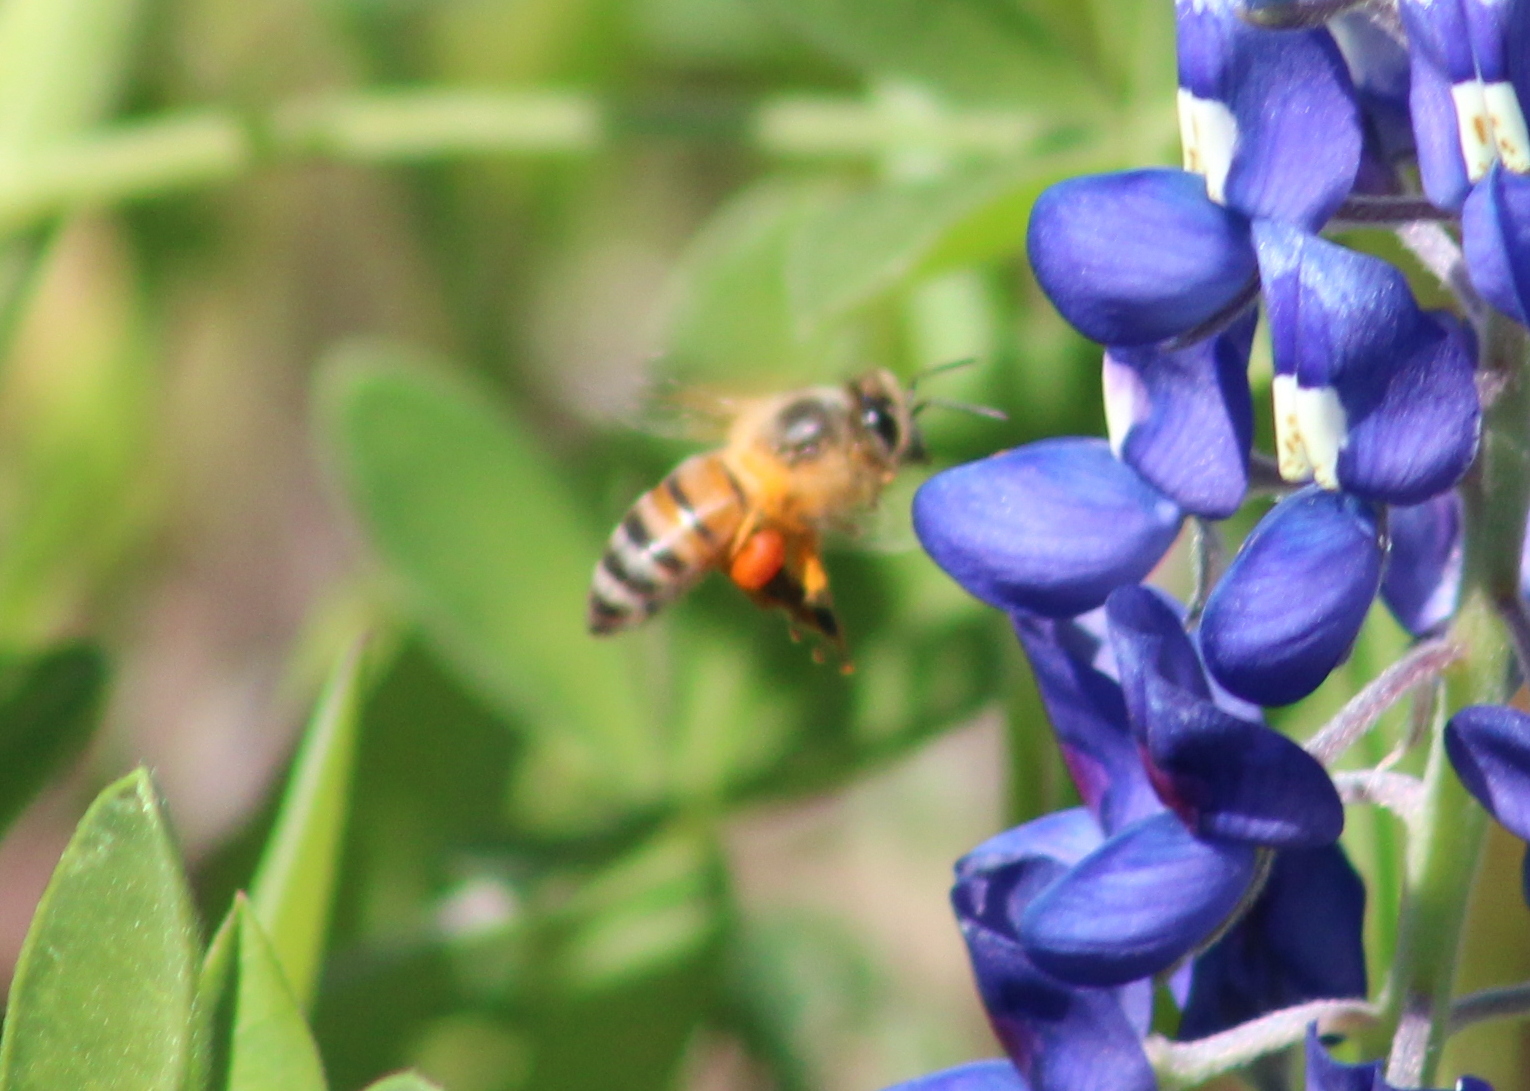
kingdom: Animalia
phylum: Arthropoda
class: Insecta
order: Hymenoptera
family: Apidae
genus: Apis
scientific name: Apis mellifera
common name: Honey bee
